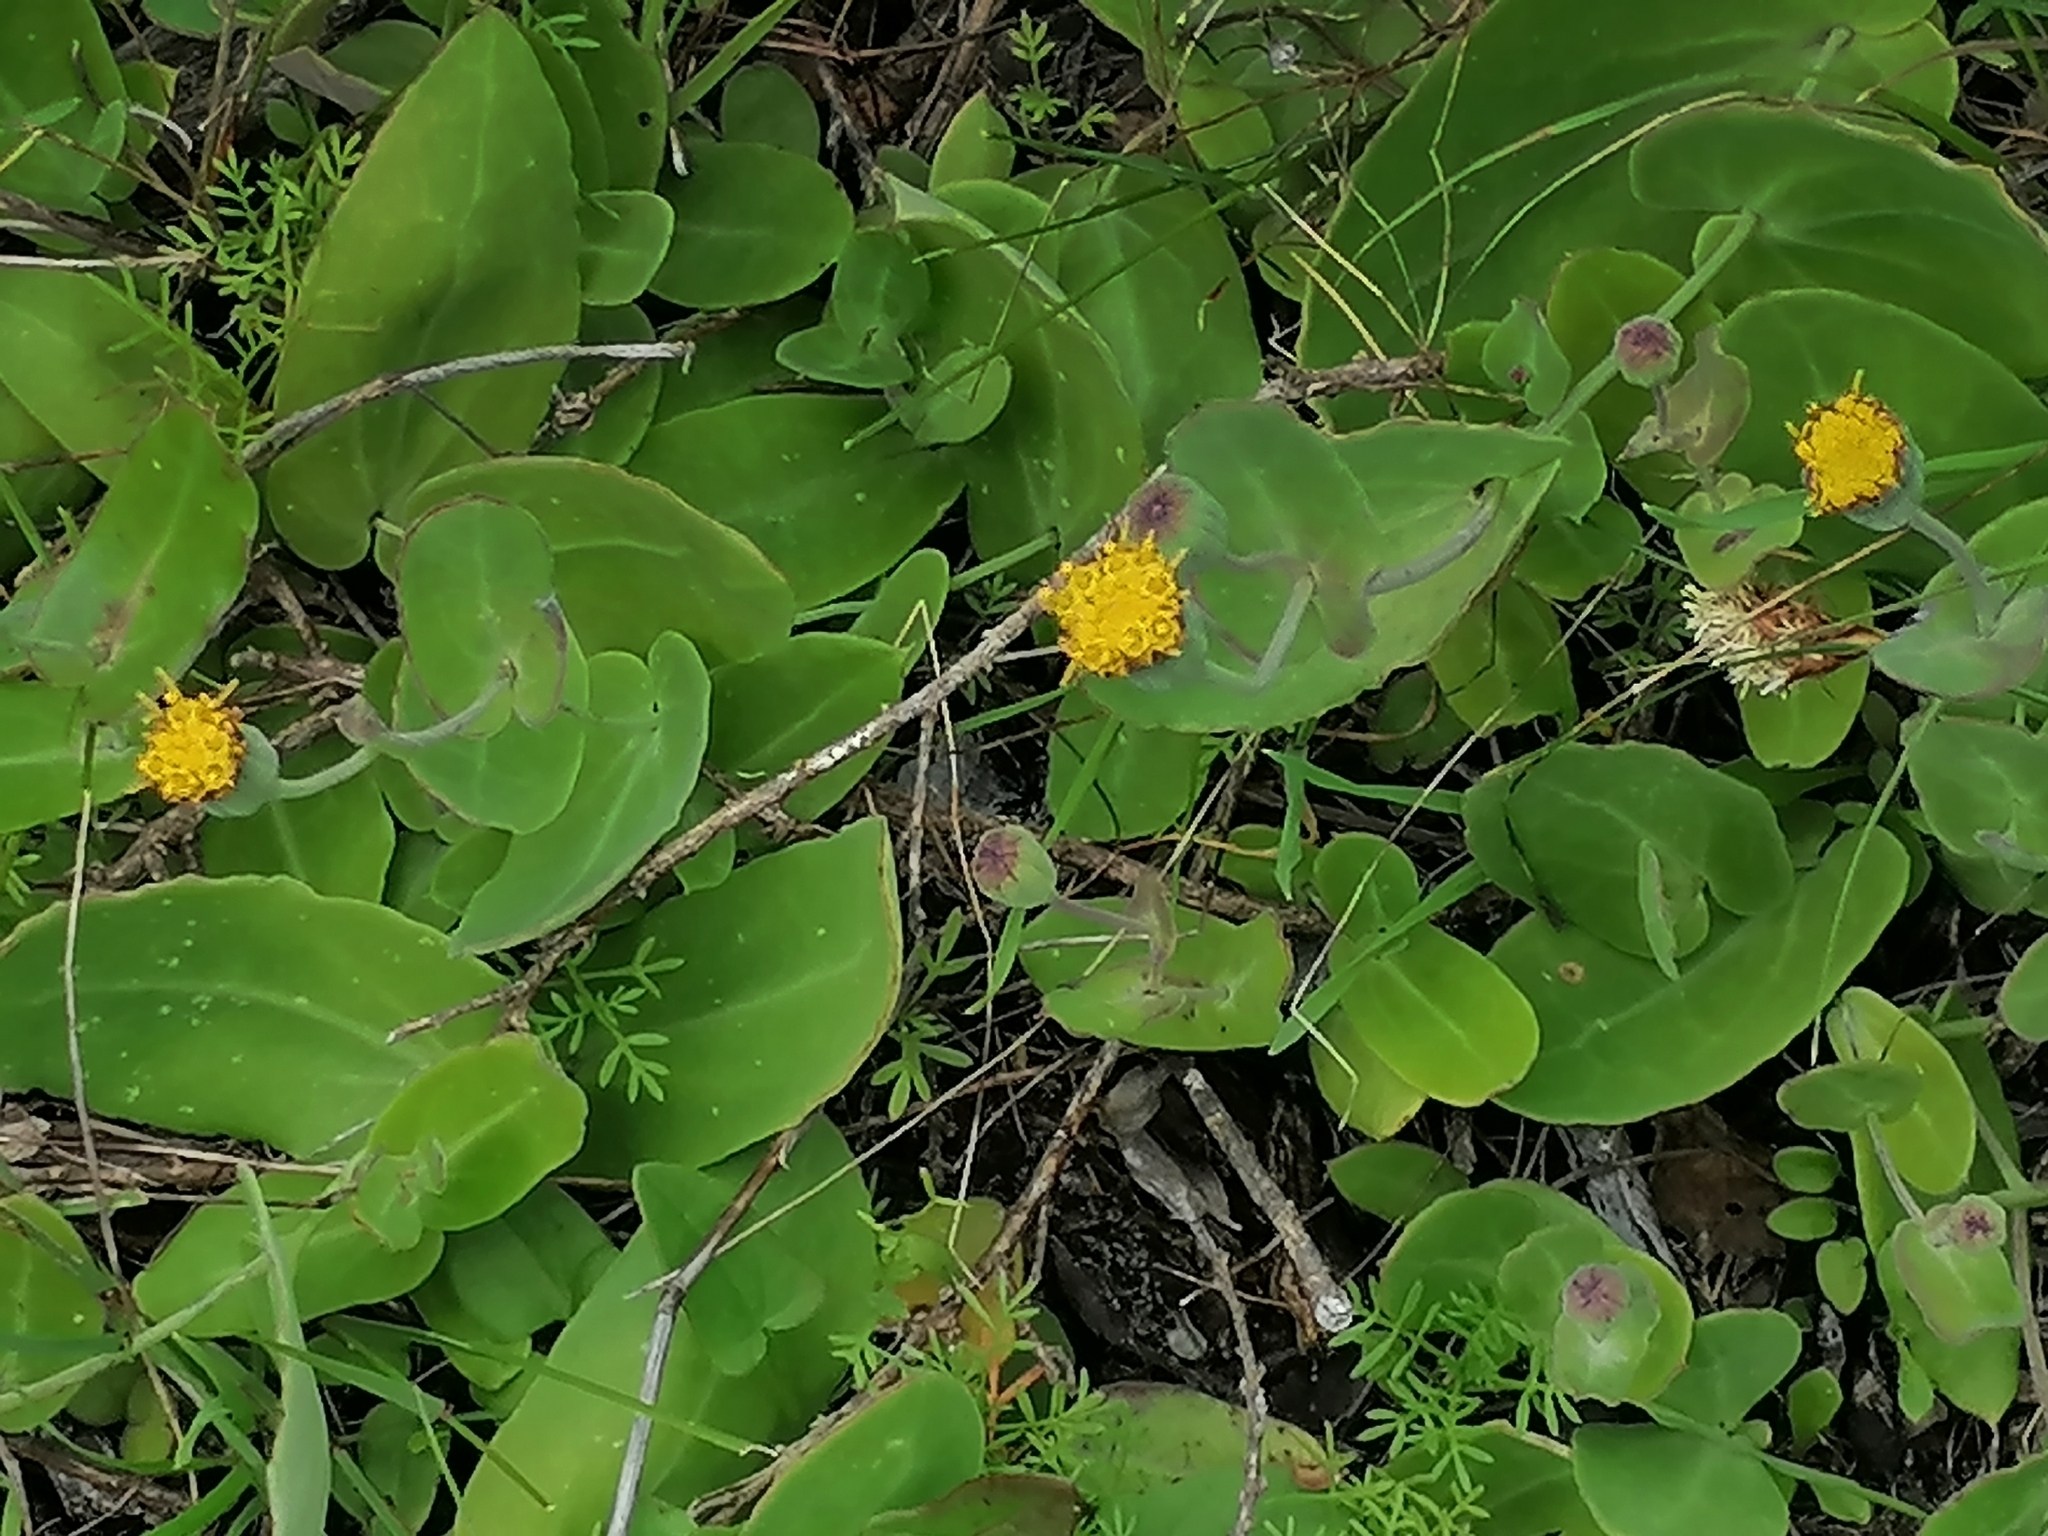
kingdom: Plantae
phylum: Tracheophyta
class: Magnoliopsida
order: Asterales
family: Asteraceae
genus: Othonna
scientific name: Othonna undulosa
